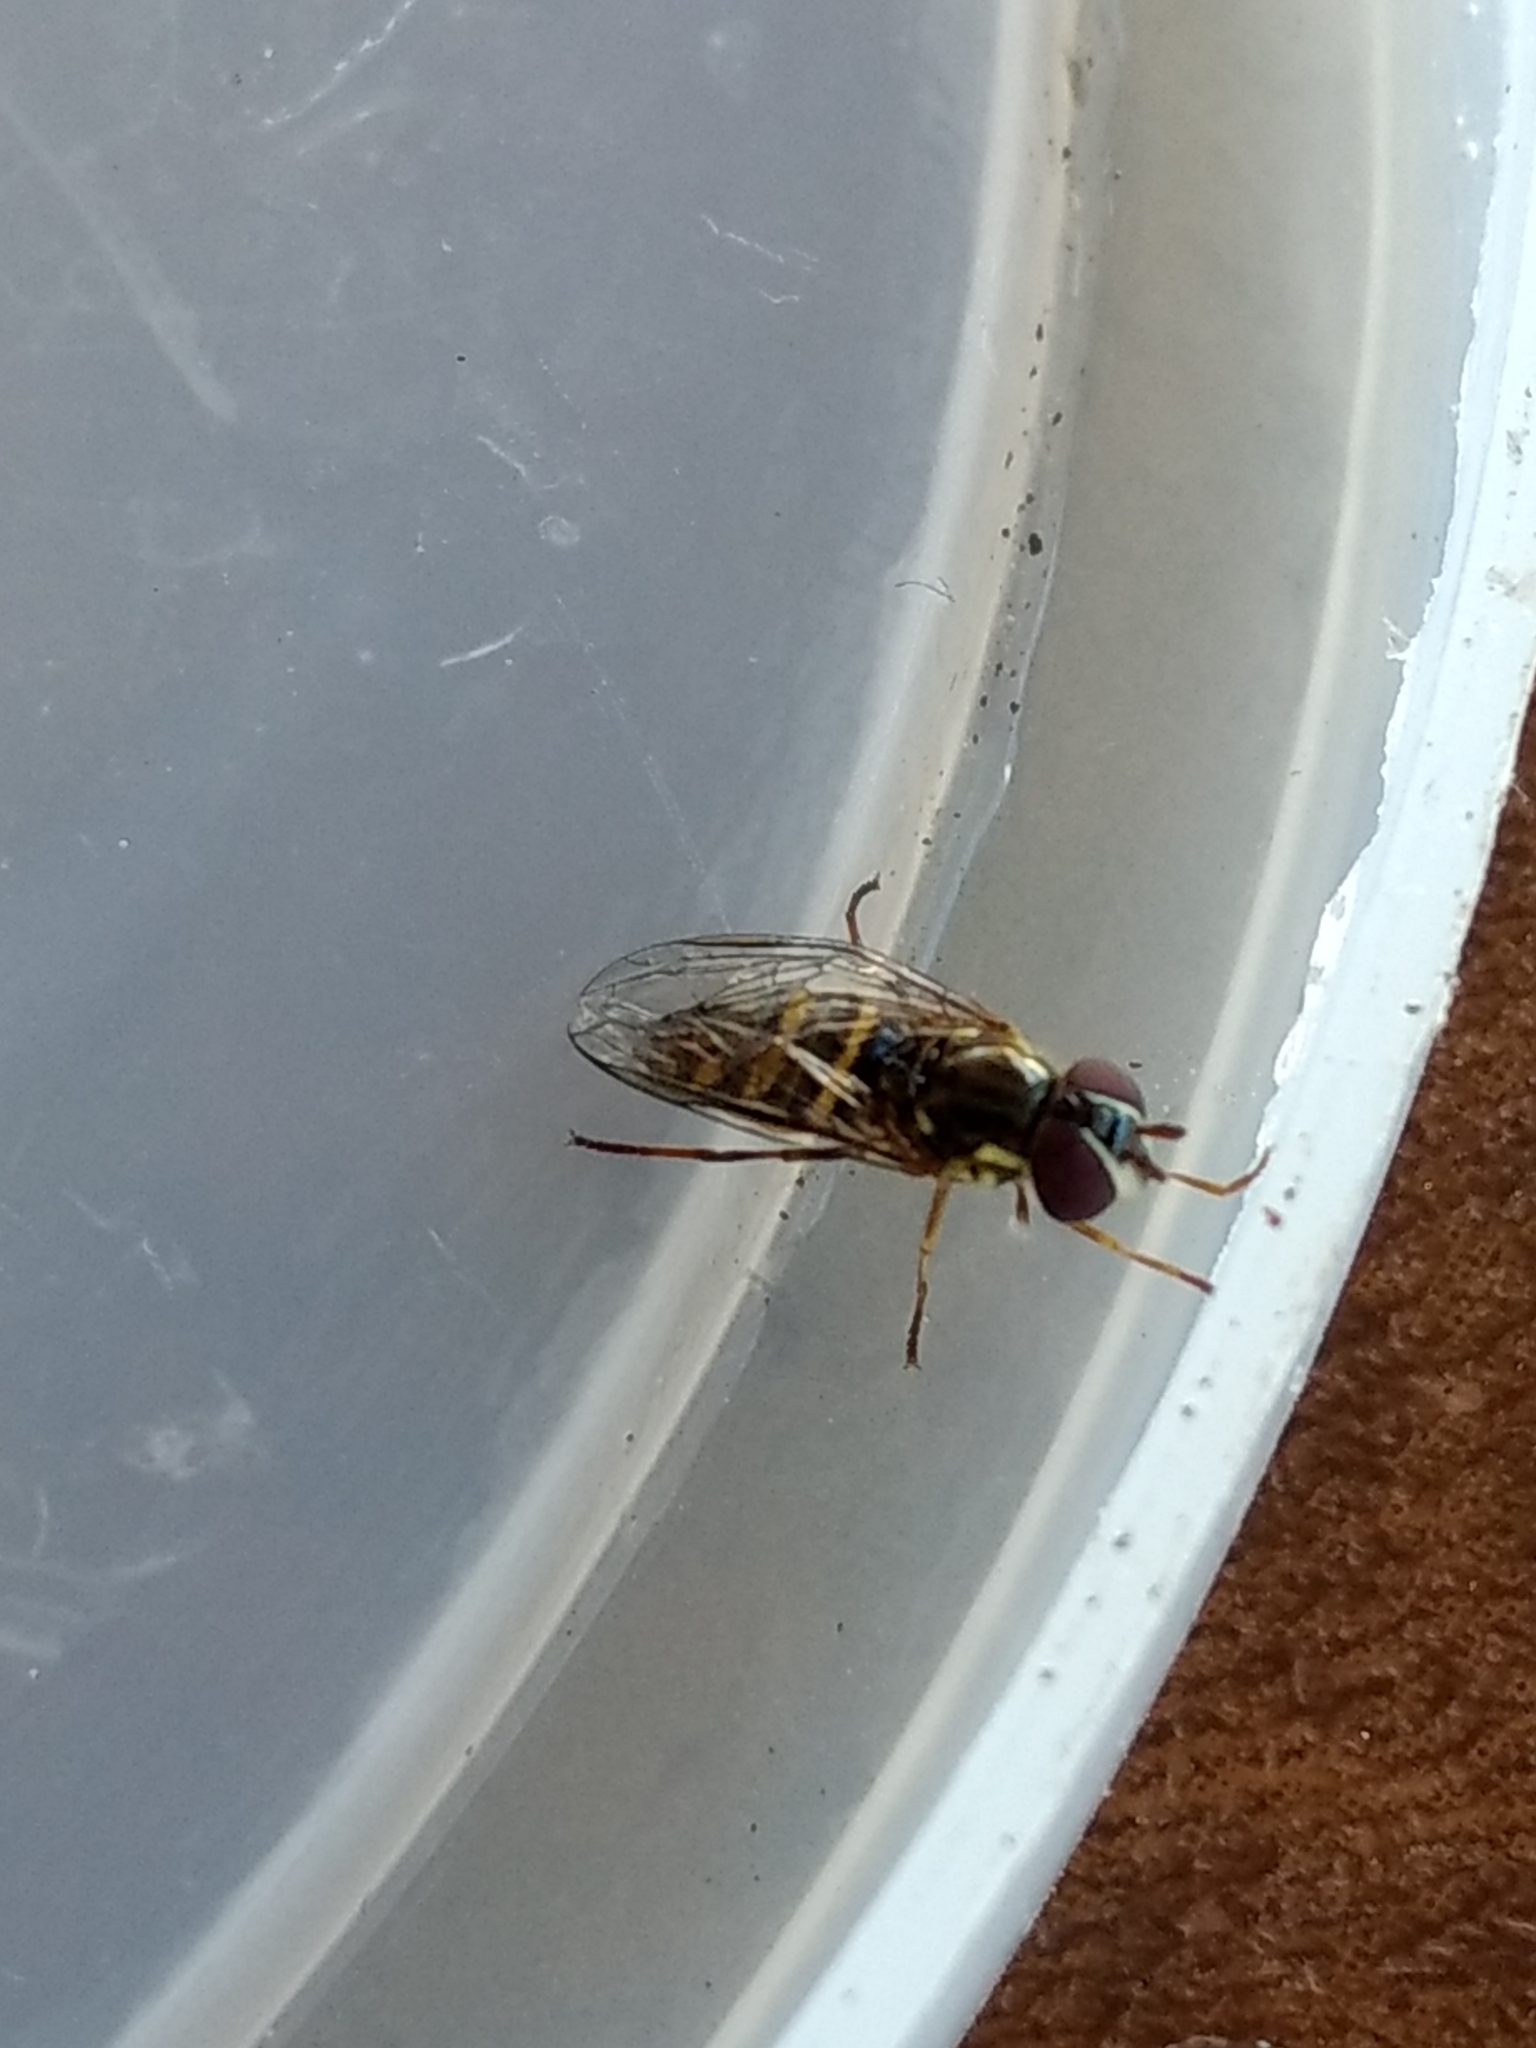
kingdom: Animalia
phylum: Arthropoda
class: Insecta
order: Diptera
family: Syrphidae
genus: Allograpta
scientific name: Allograpta obliqua
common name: Common oblique syrphid
